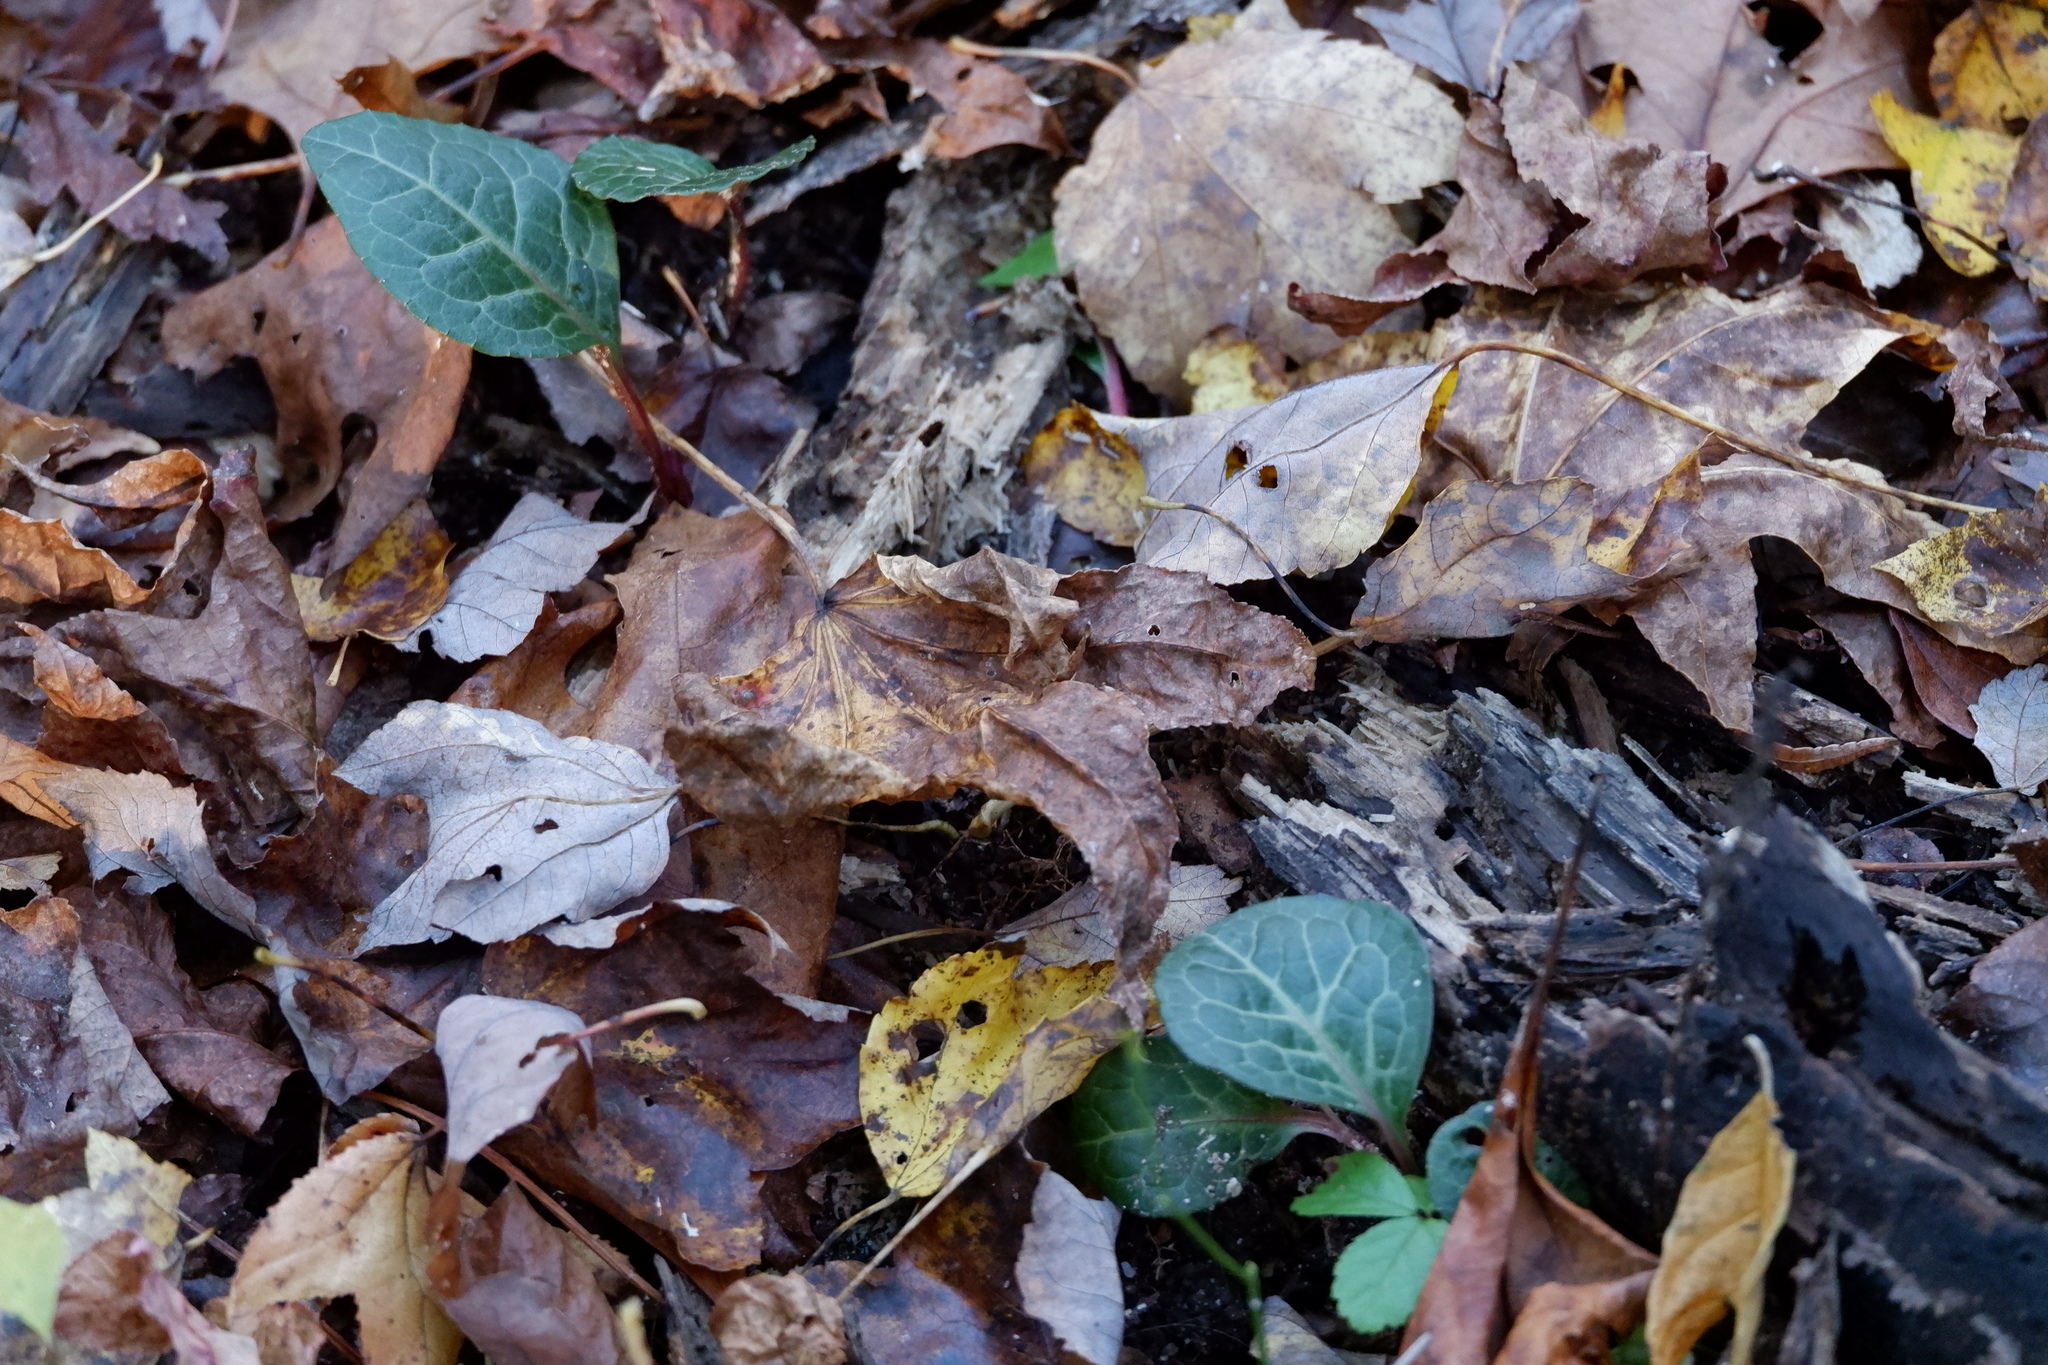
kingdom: Plantae
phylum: Tracheophyta
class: Magnoliopsida
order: Ericales
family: Ericaceae
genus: Pyrola
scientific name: Pyrola americana
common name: American wintergreen
